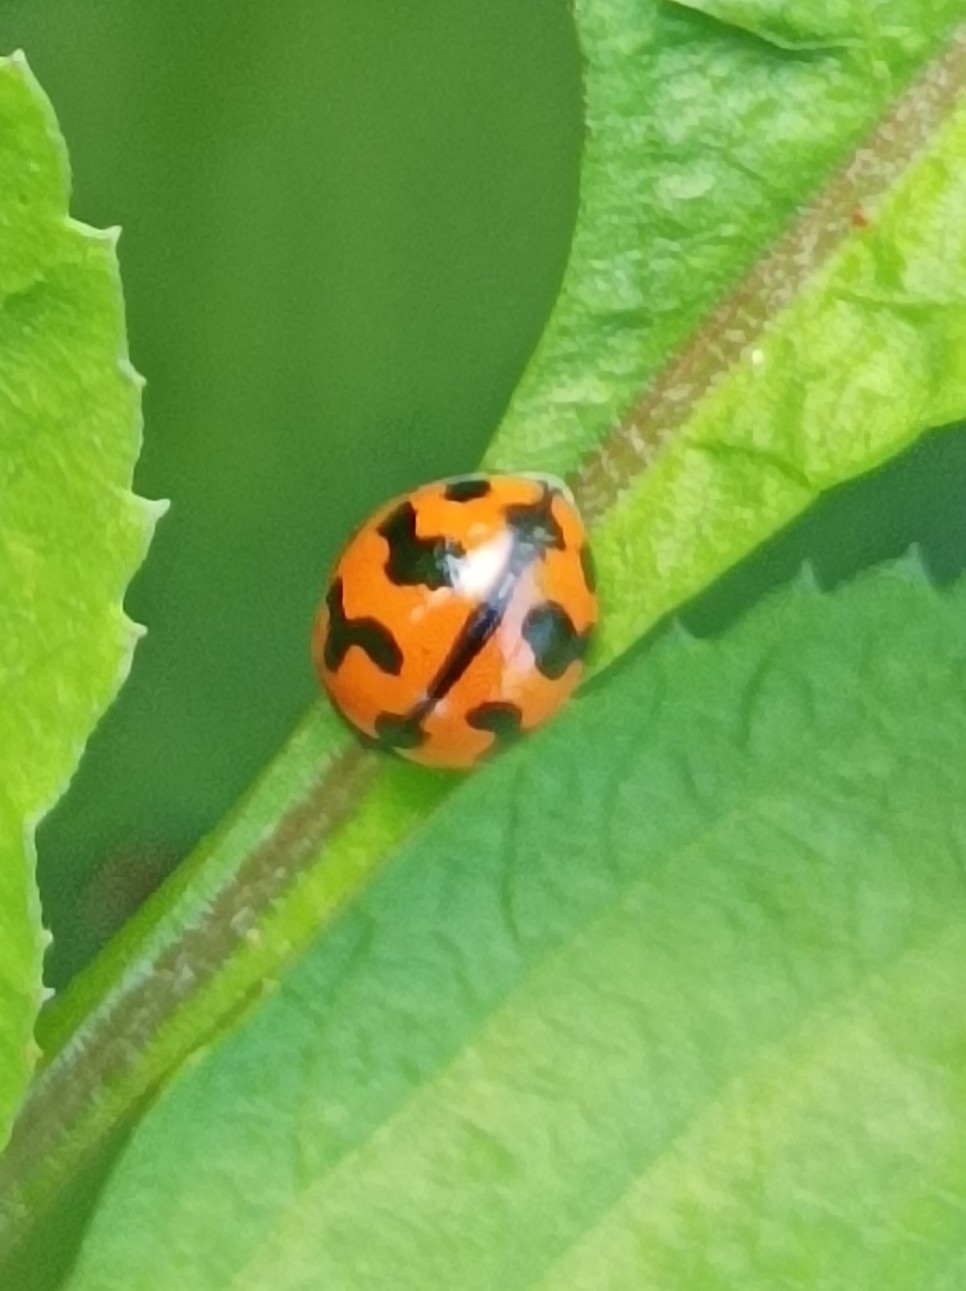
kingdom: Animalia
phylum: Arthropoda
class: Insecta
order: Coleoptera
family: Coccinellidae
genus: Coccinella
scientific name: Coccinella transversalis
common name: Transverse lady beetle
